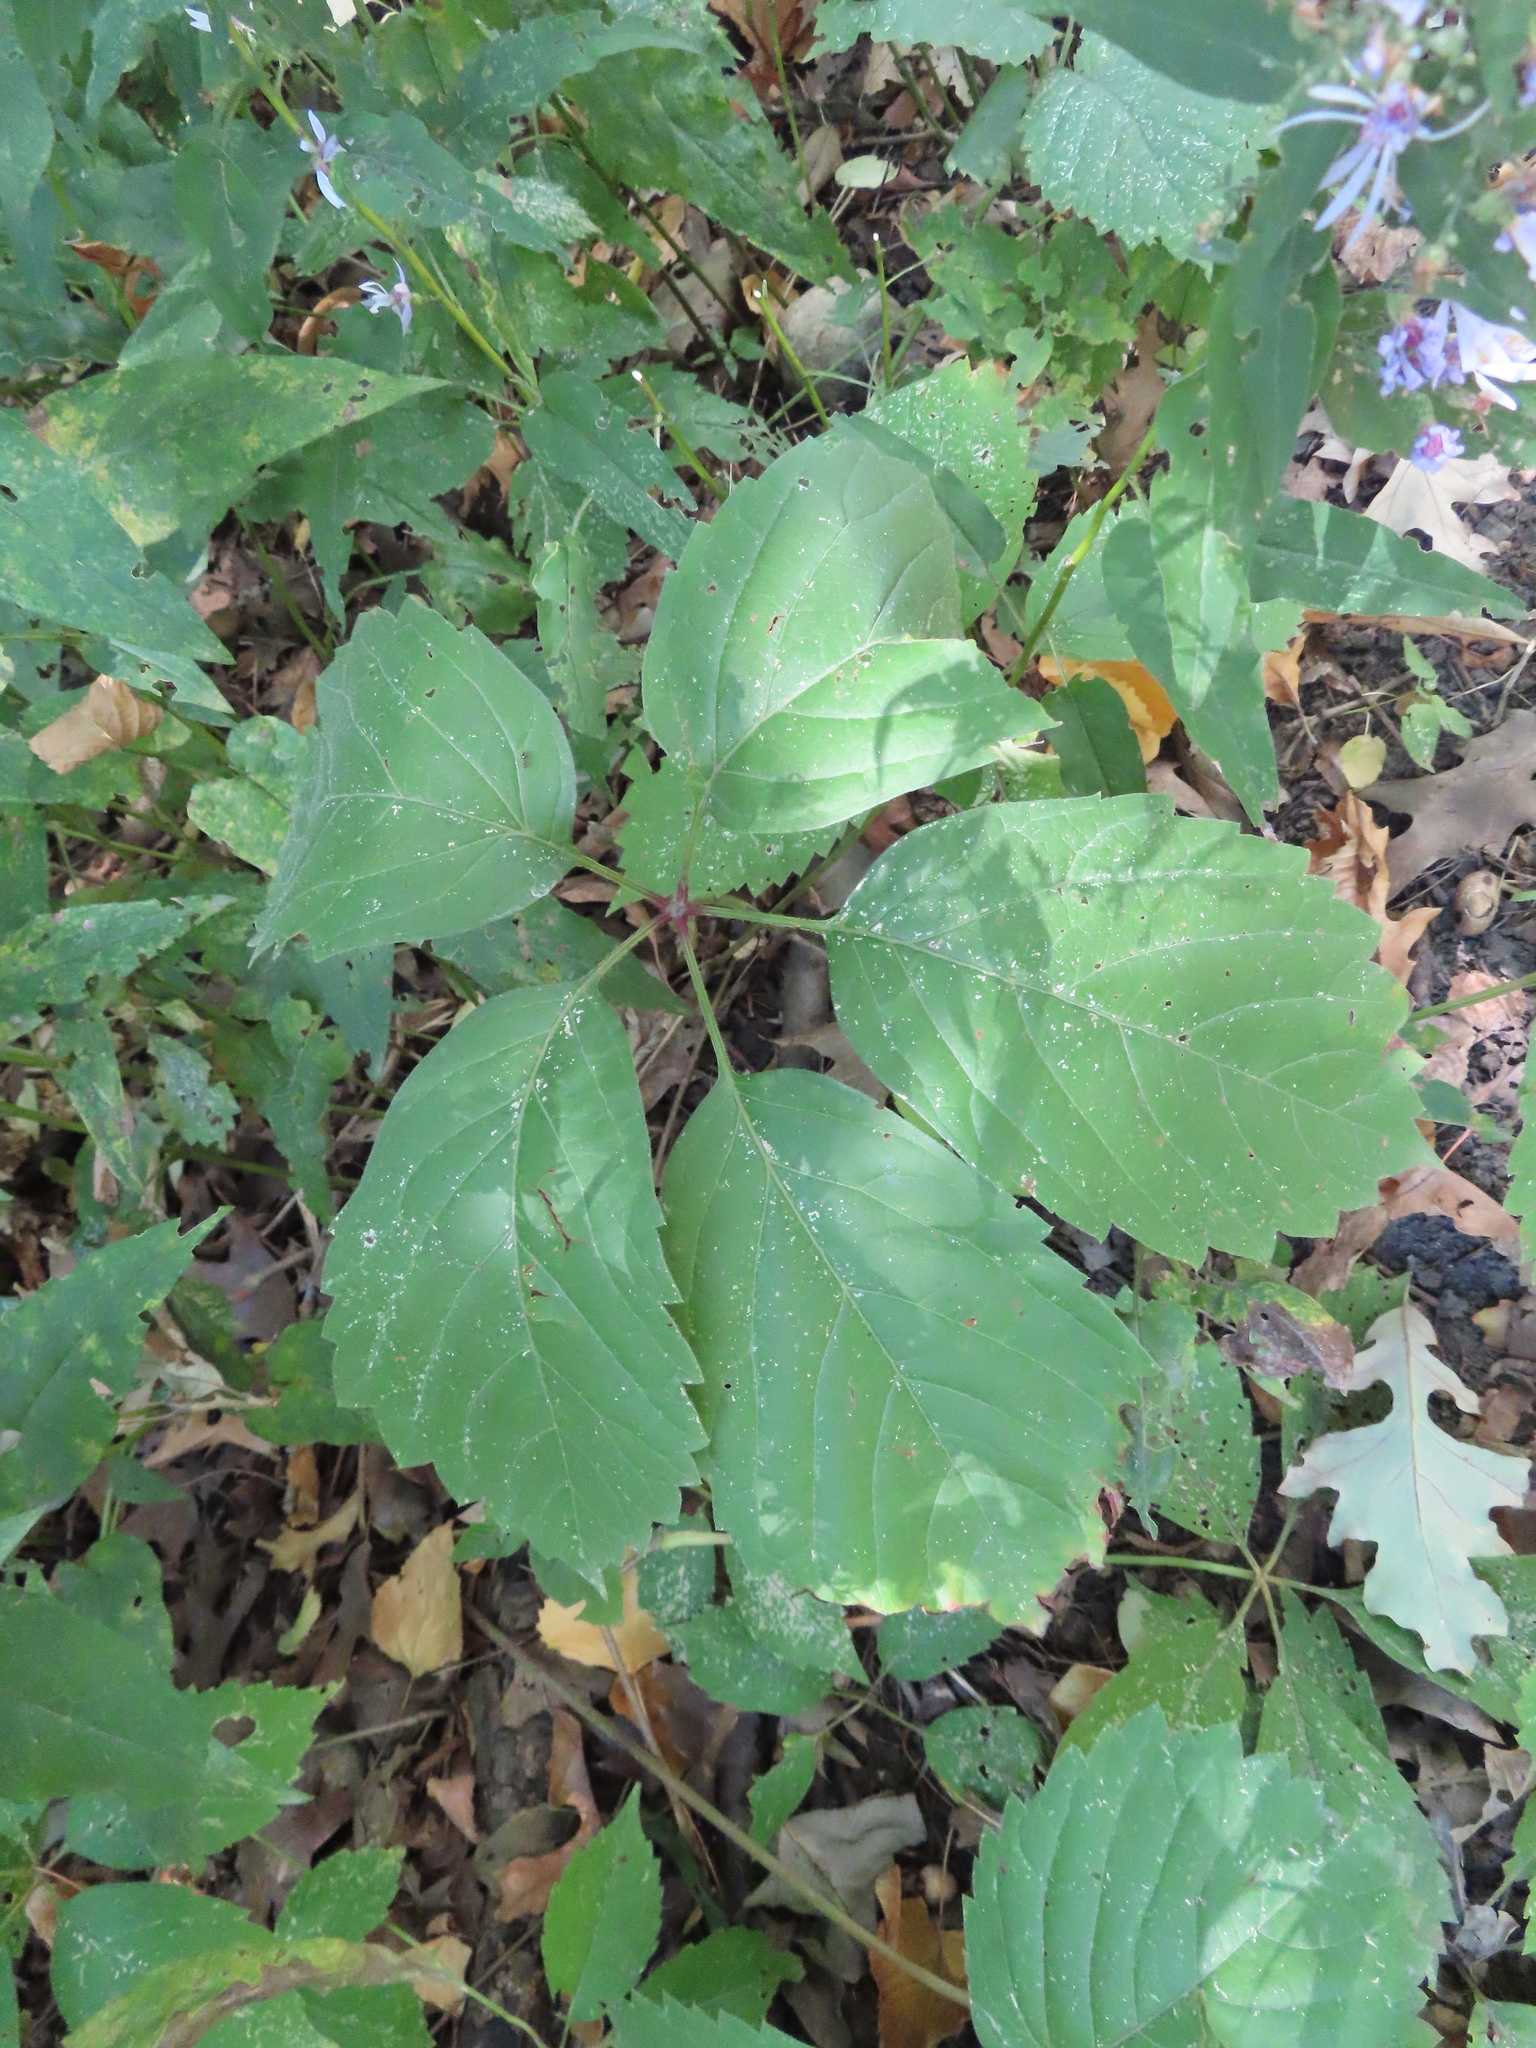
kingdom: Plantae
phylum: Tracheophyta
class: Magnoliopsida
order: Vitales
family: Vitaceae
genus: Parthenocissus
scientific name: Parthenocissus inserta
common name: False virginia-creeper
